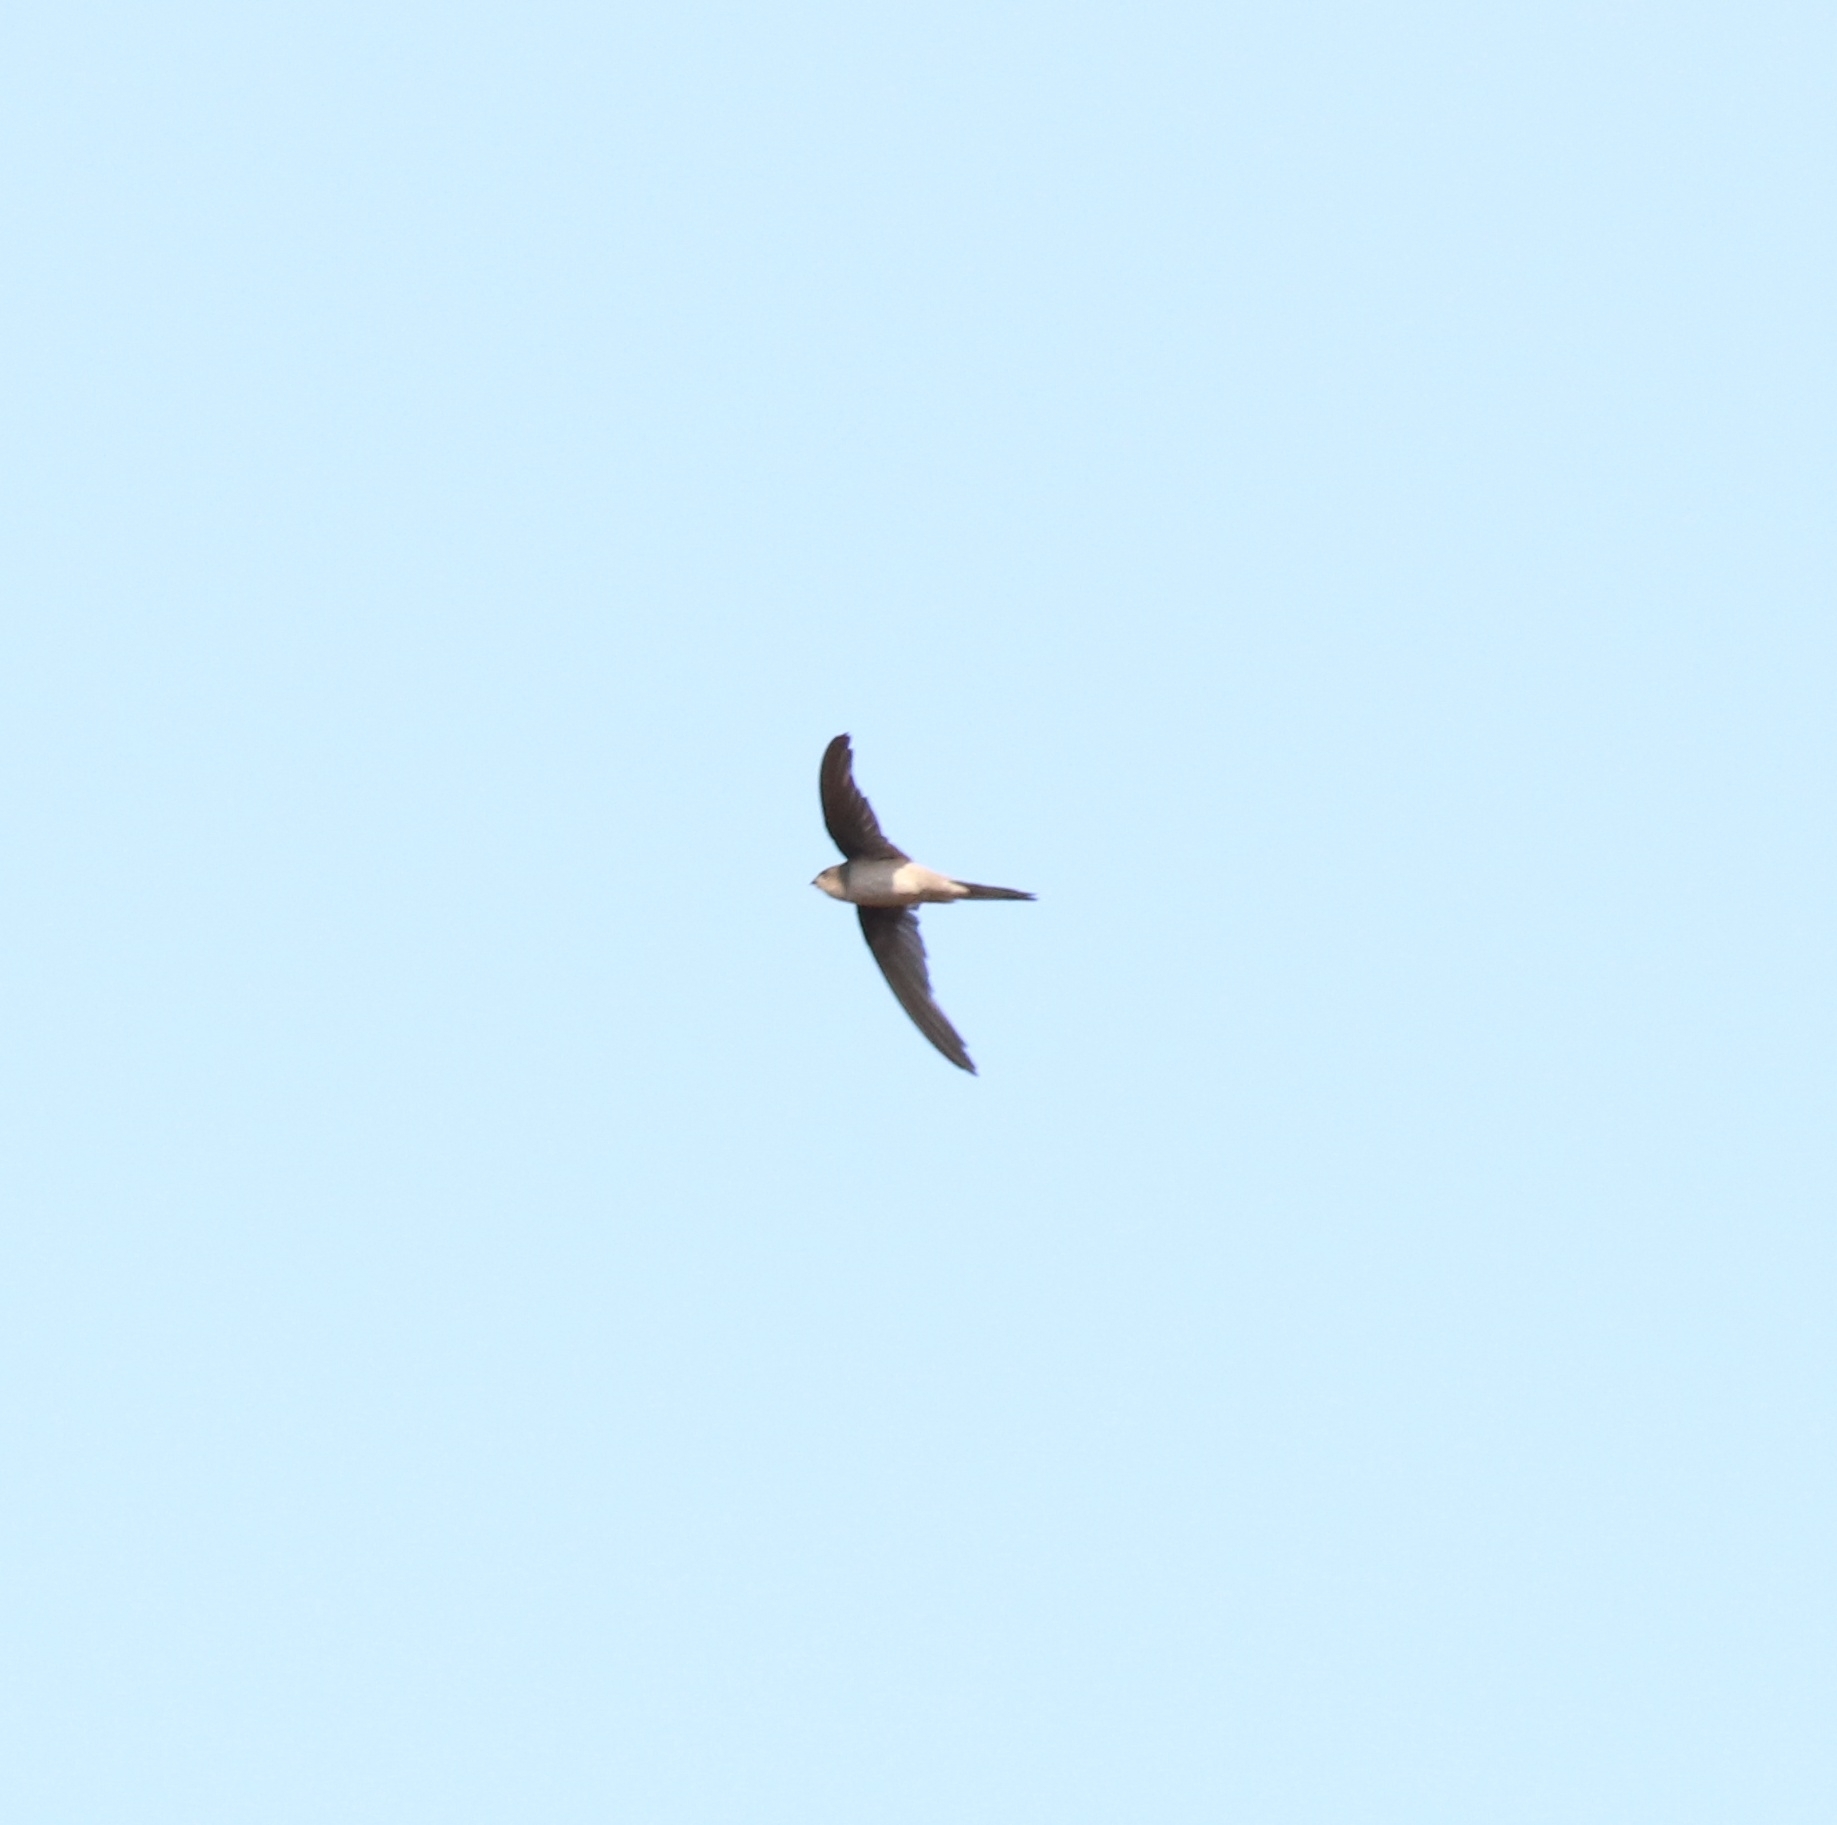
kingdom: Animalia
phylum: Chordata
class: Aves
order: Apodiformes
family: Apodidae
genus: Cypsiurus
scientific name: Cypsiurus balasiensis
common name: Asian palm swift
